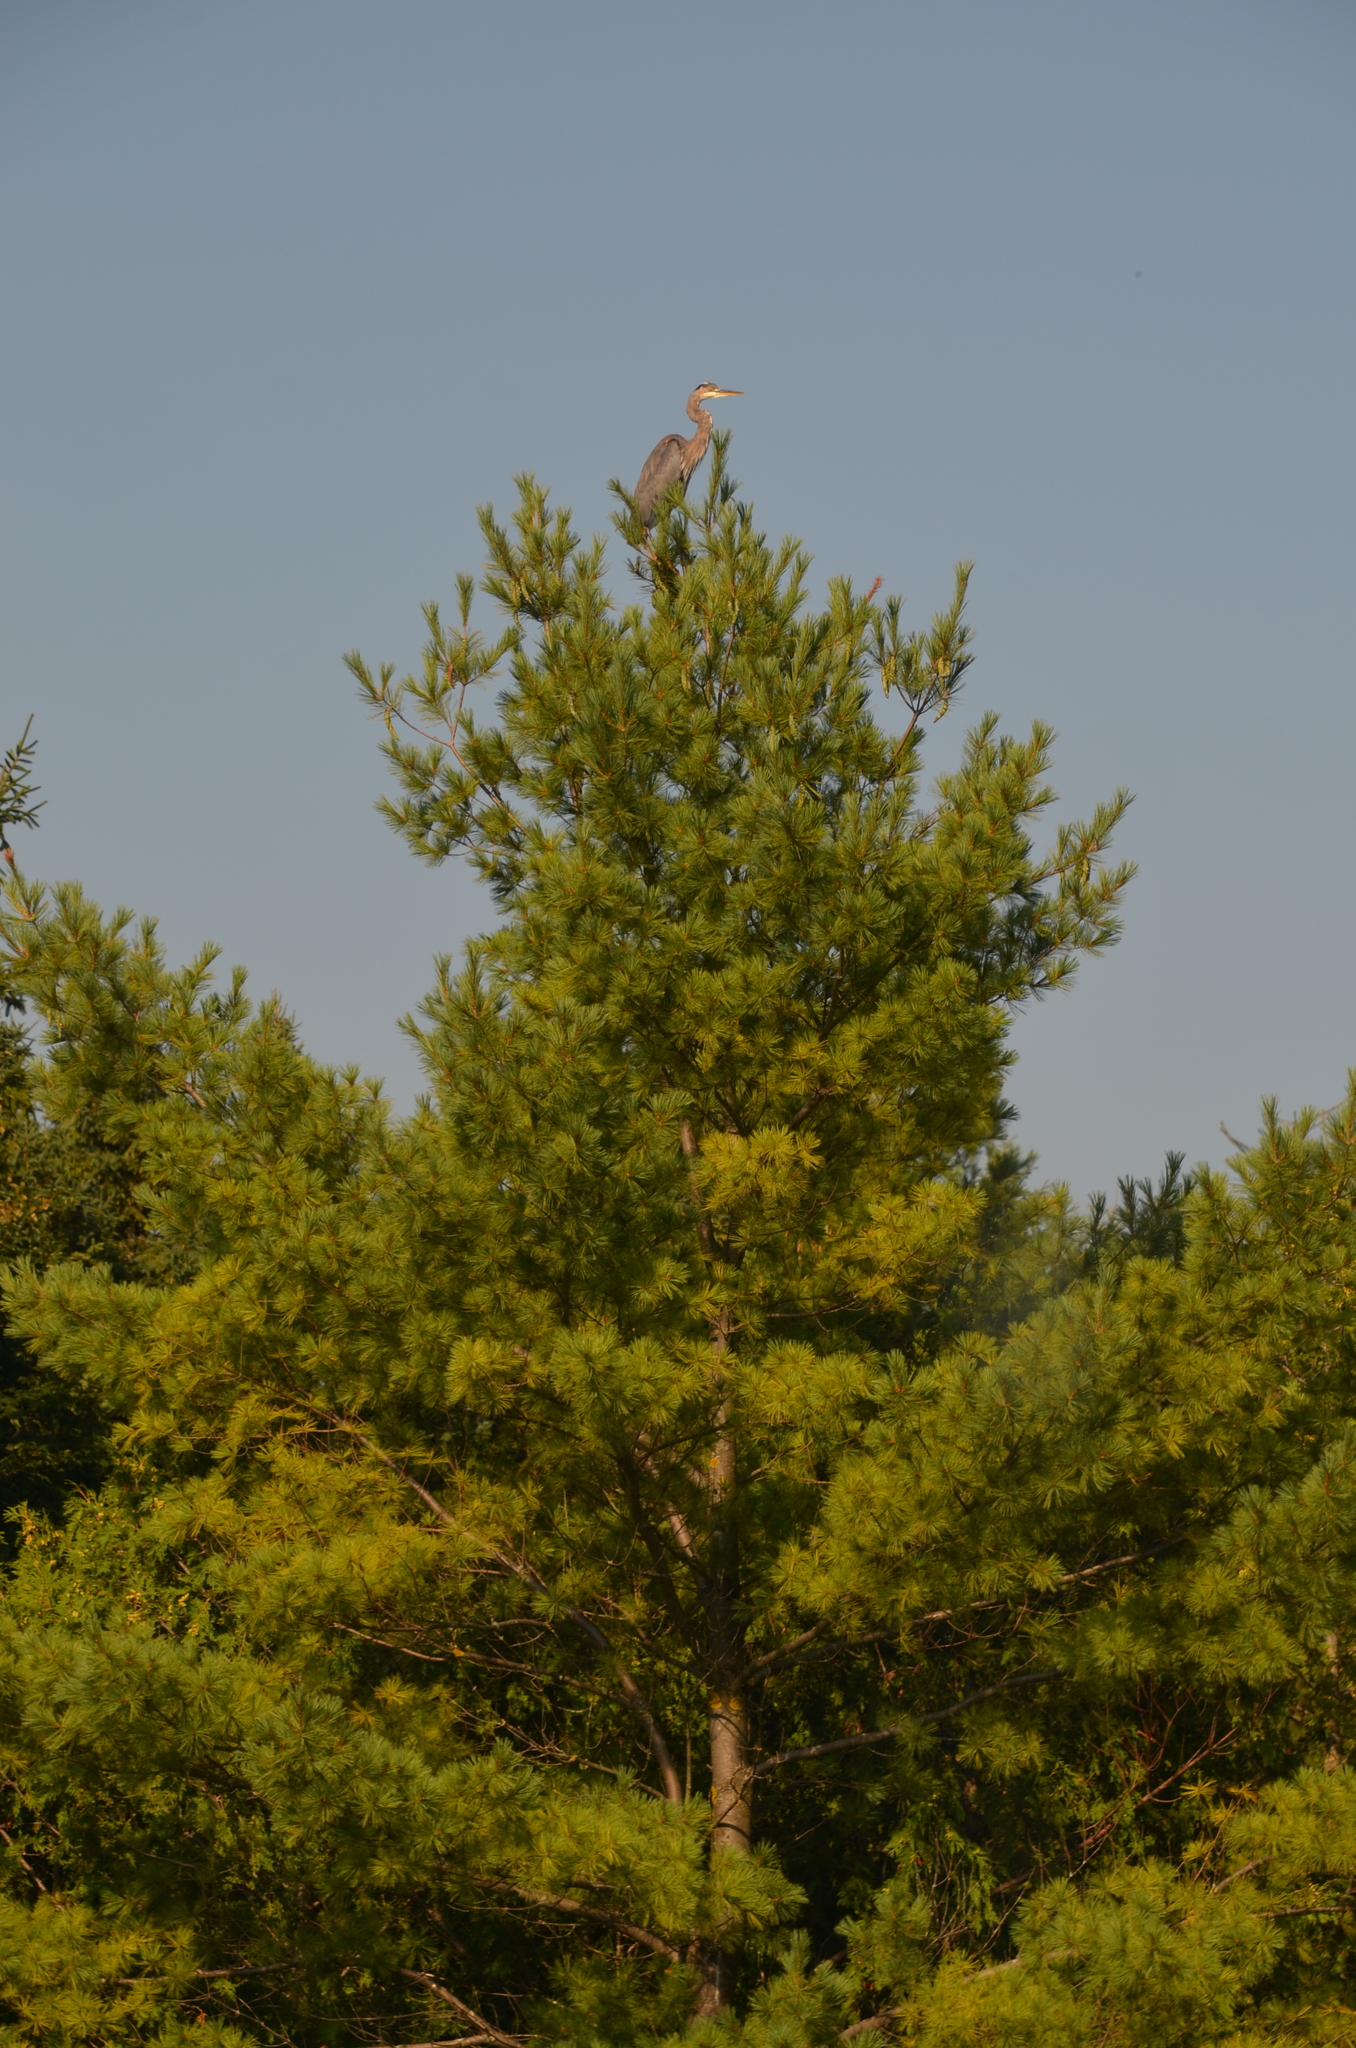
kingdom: Animalia
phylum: Chordata
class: Aves
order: Pelecaniformes
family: Ardeidae
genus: Ardea
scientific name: Ardea herodias
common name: Great blue heron
